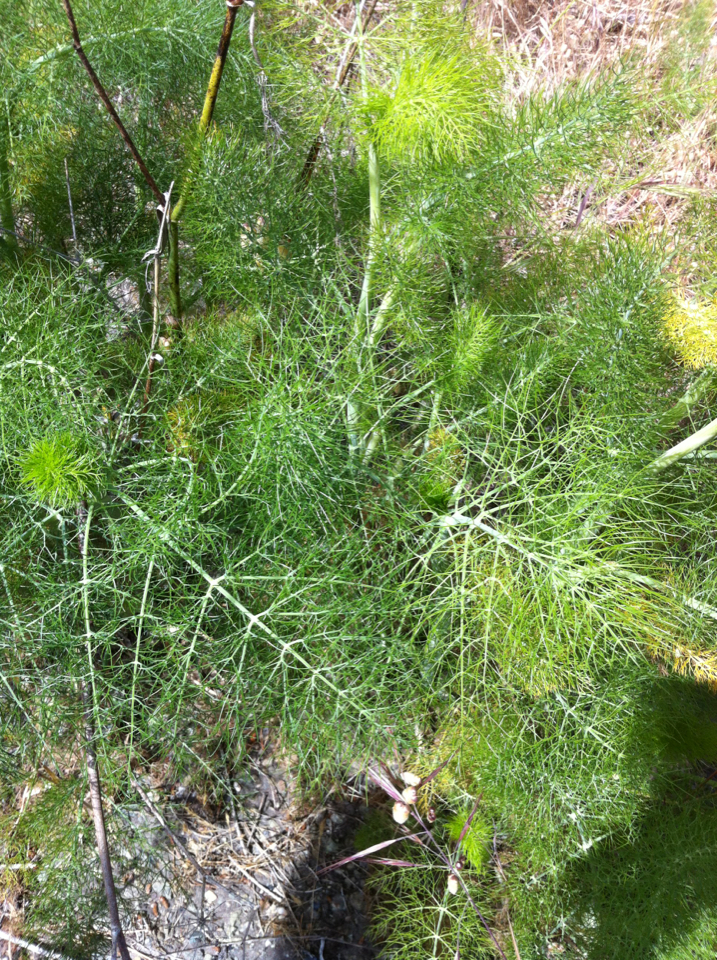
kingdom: Plantae
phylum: Tracheophyta
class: Magnoliopsida
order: Apiales
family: Apiaceae
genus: Foeniculum
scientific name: Foeniculum vulgare
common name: Fennel
